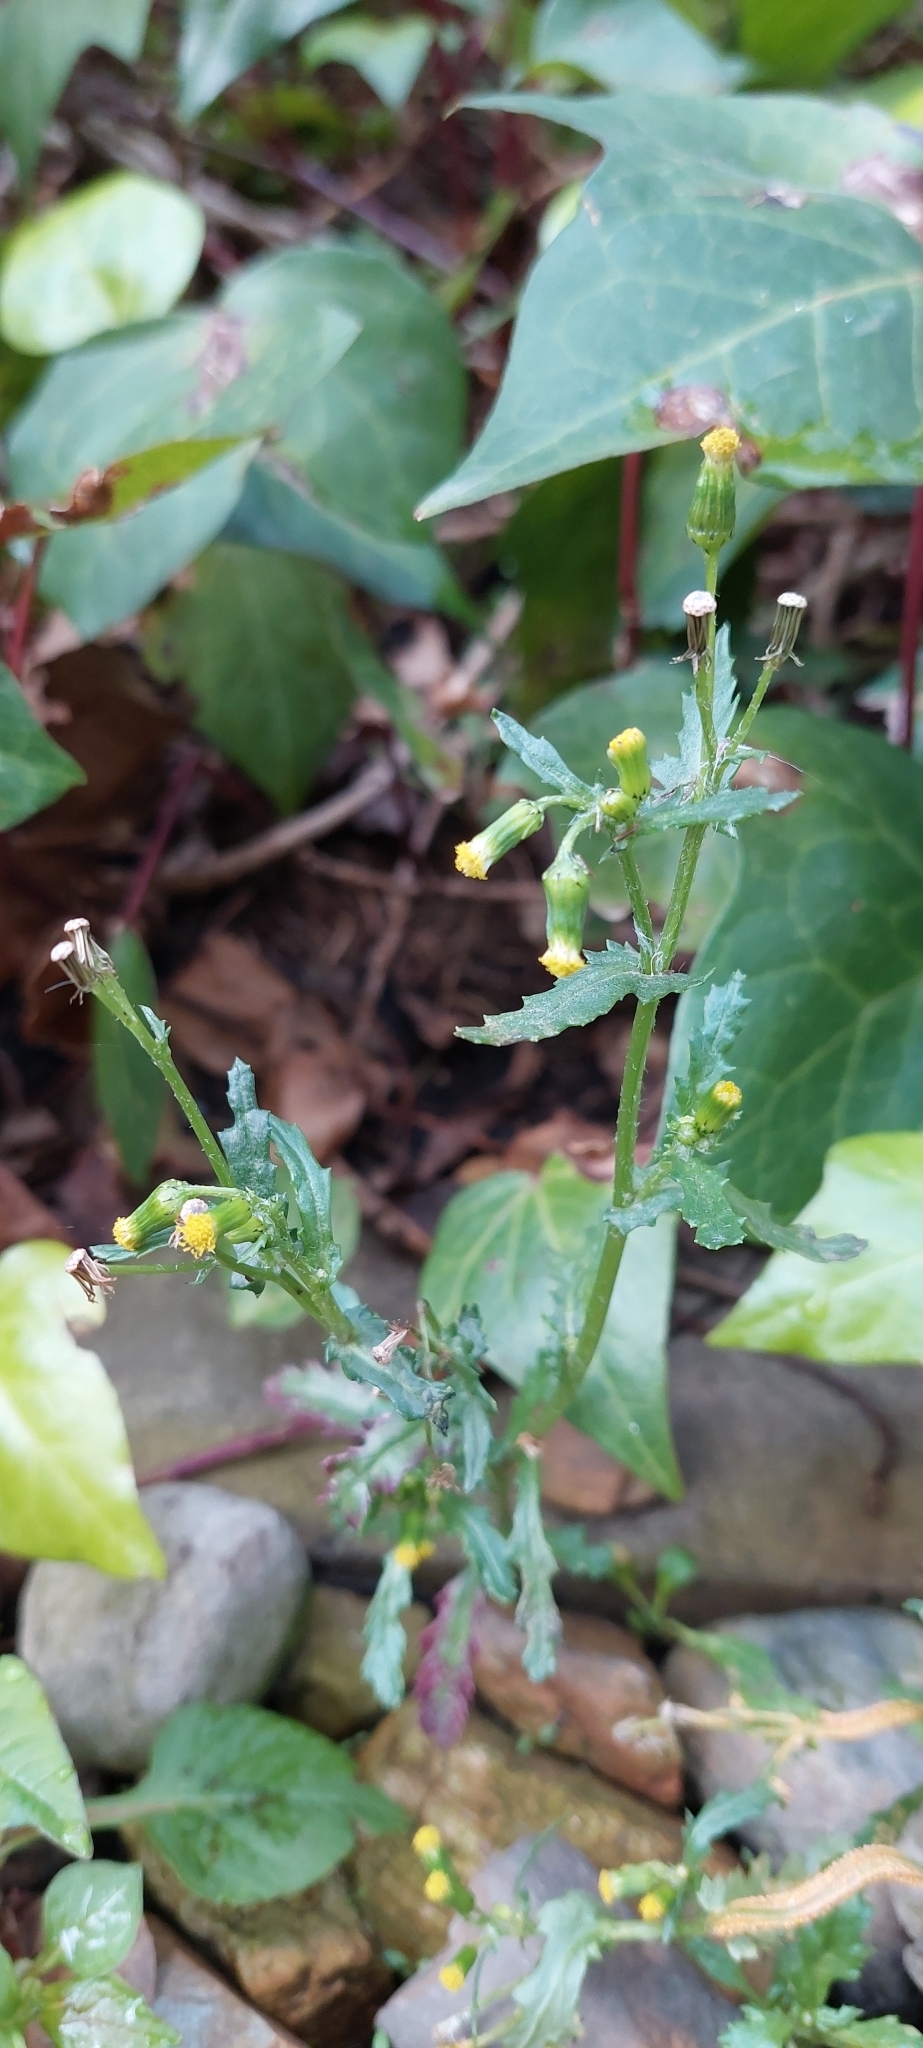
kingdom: Plantae
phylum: Tracheophyta
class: Magnoliopsida
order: Asterales
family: Asteraceae
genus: Senecio
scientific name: Senecio vulgaris
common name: Old-man-in-the-spring
